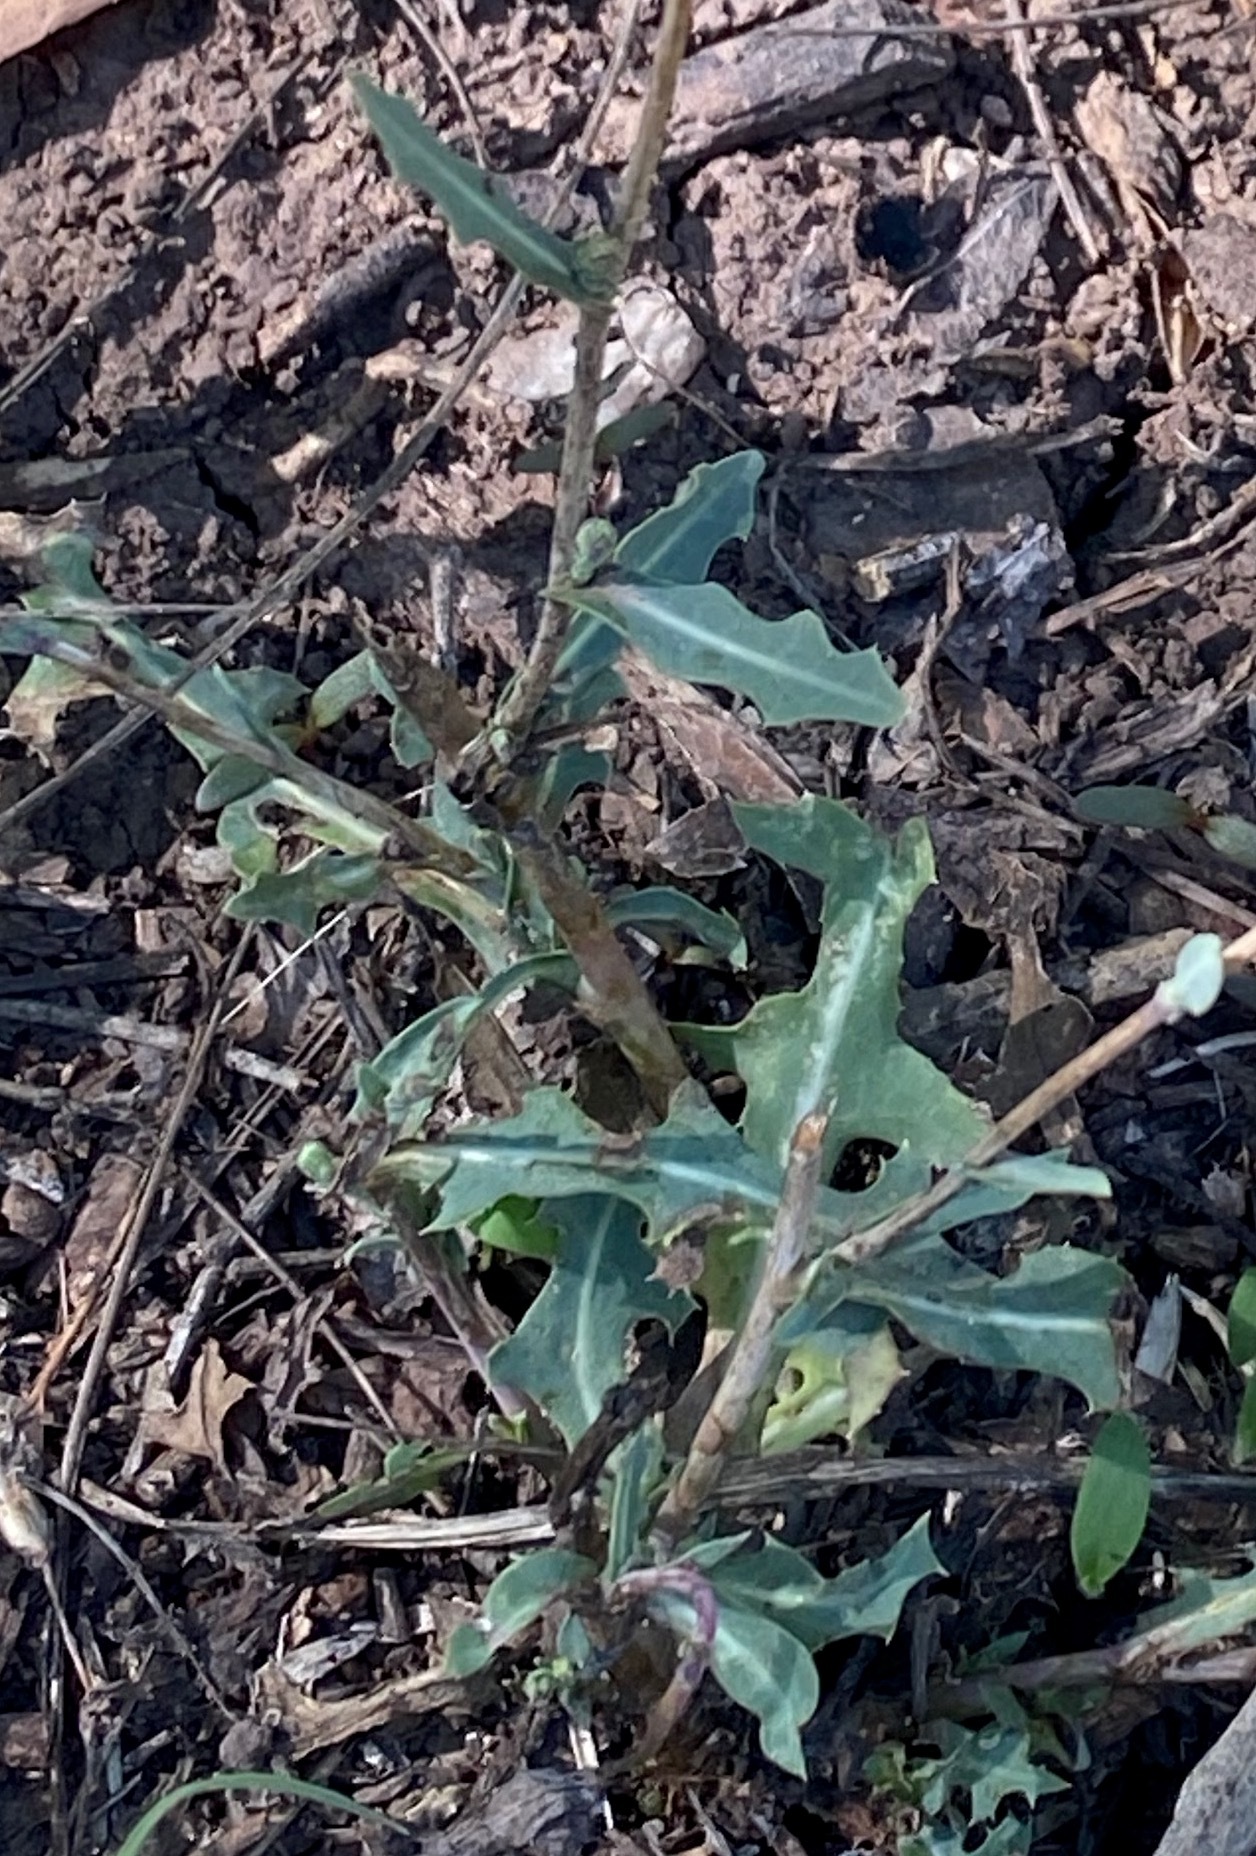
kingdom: Plantae
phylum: Tracheophyta
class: Magnoliopsida
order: Asterales
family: Asteraceae
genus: Lactuca
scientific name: Lactuca serriola
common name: Prickly lettuce
